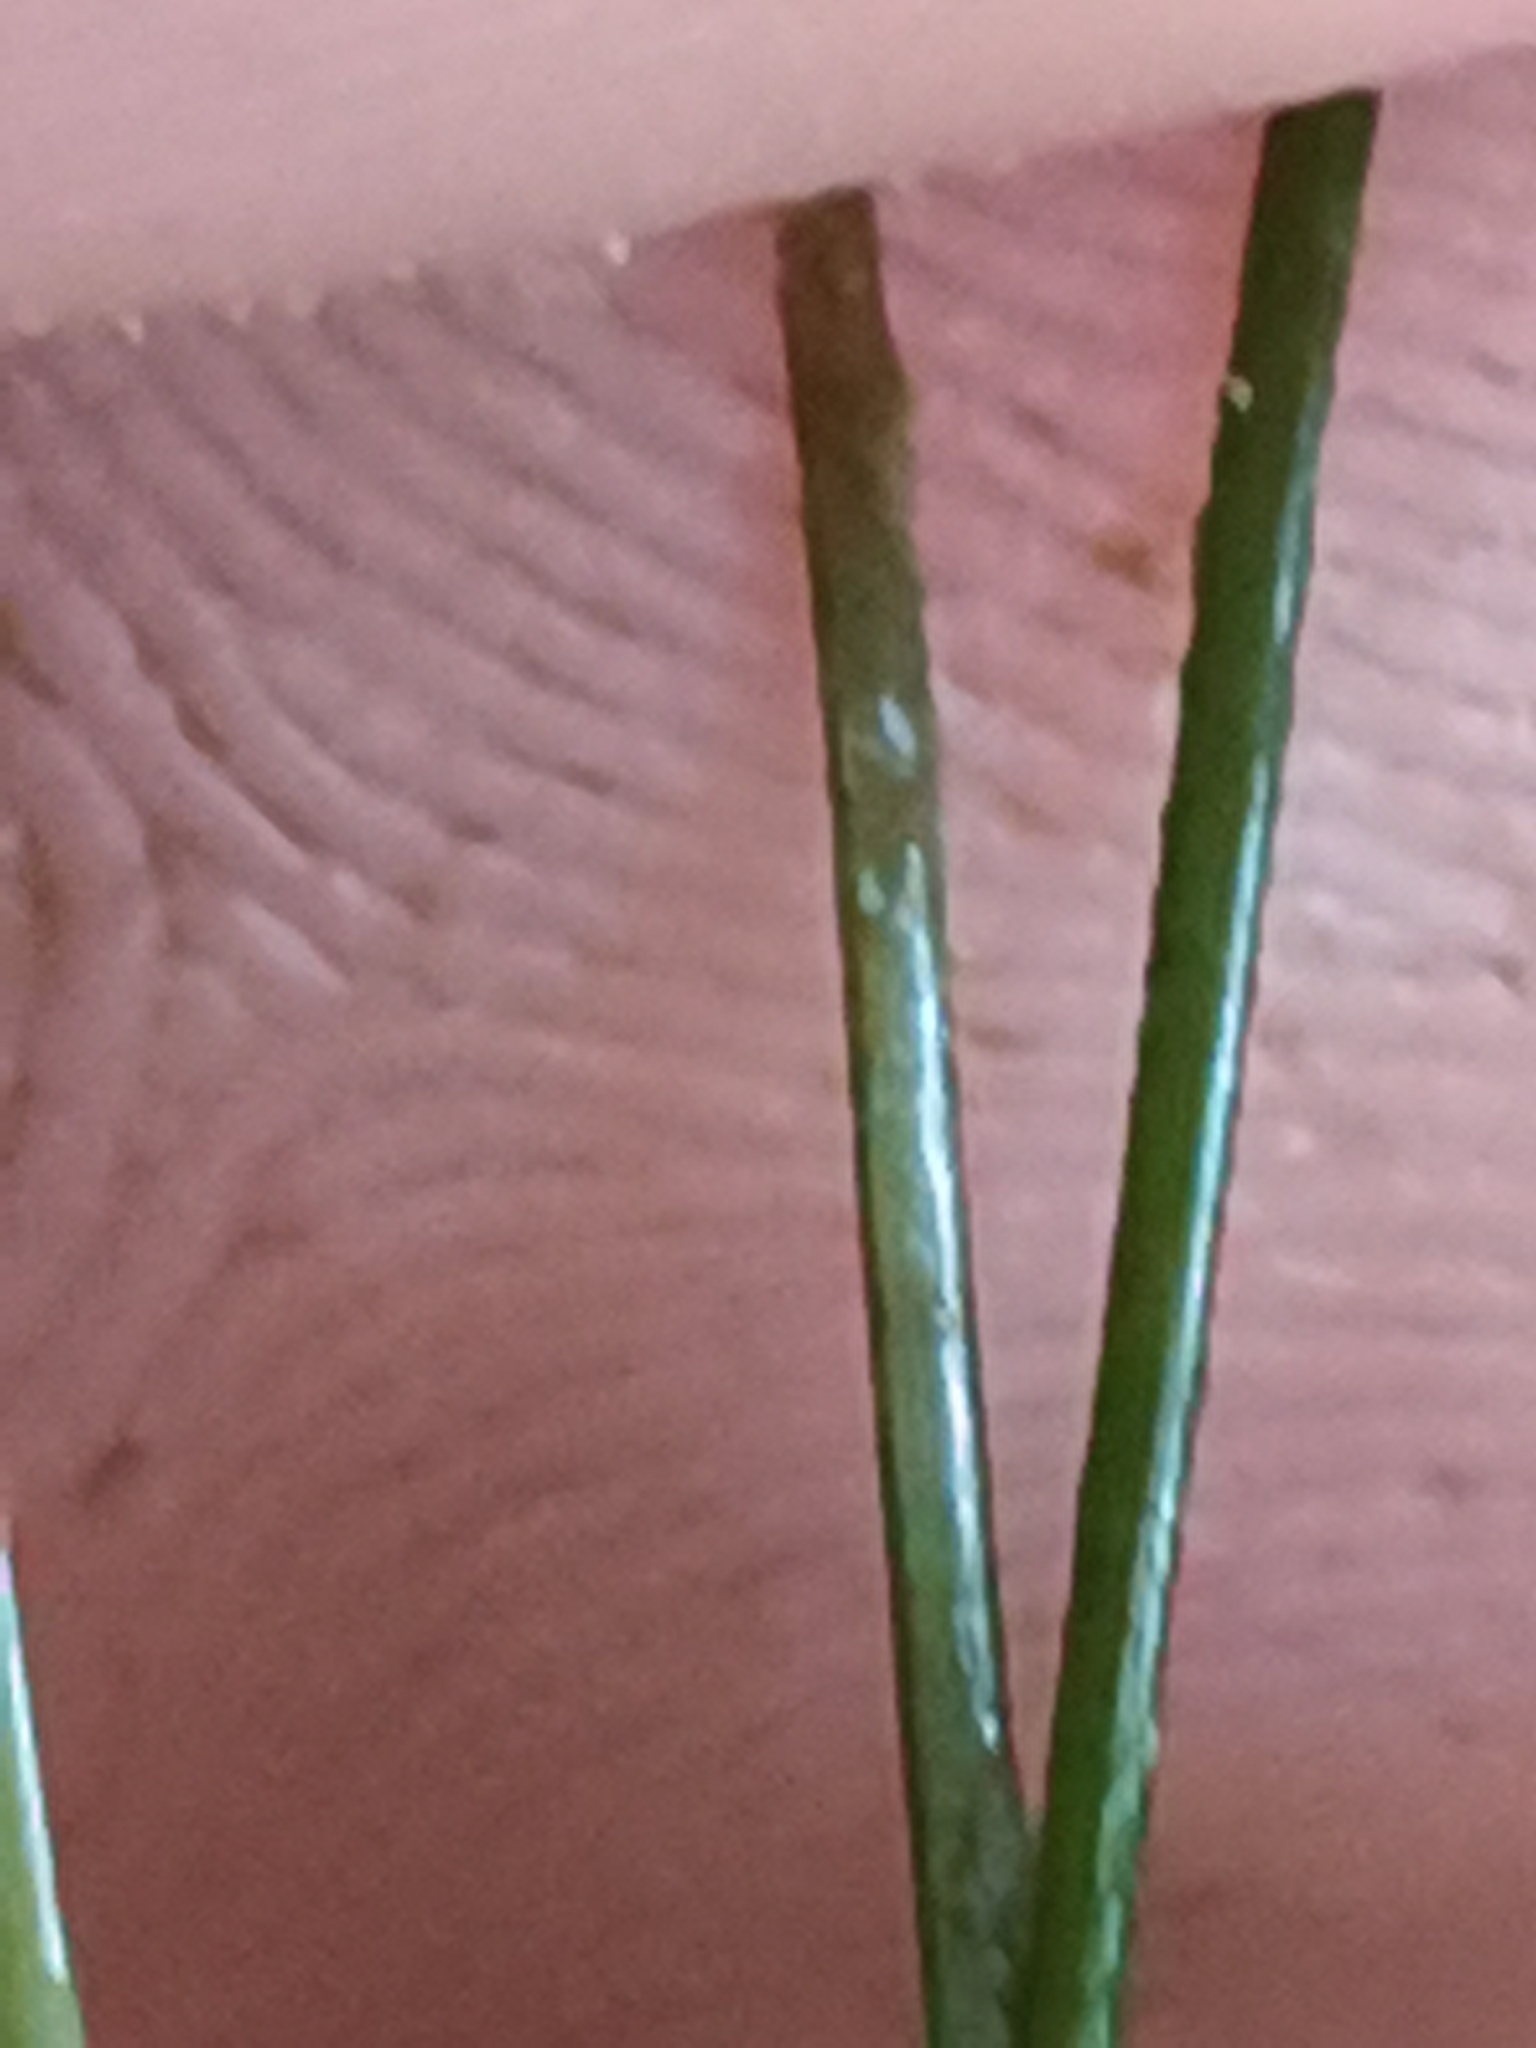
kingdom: Plantae
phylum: Tracheophyta
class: Liliopsida
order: Alismatales
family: Potamogetonaceae
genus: Stuckenia
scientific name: Stuckenia filiformis
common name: Alpine thread-leaved pondweed
